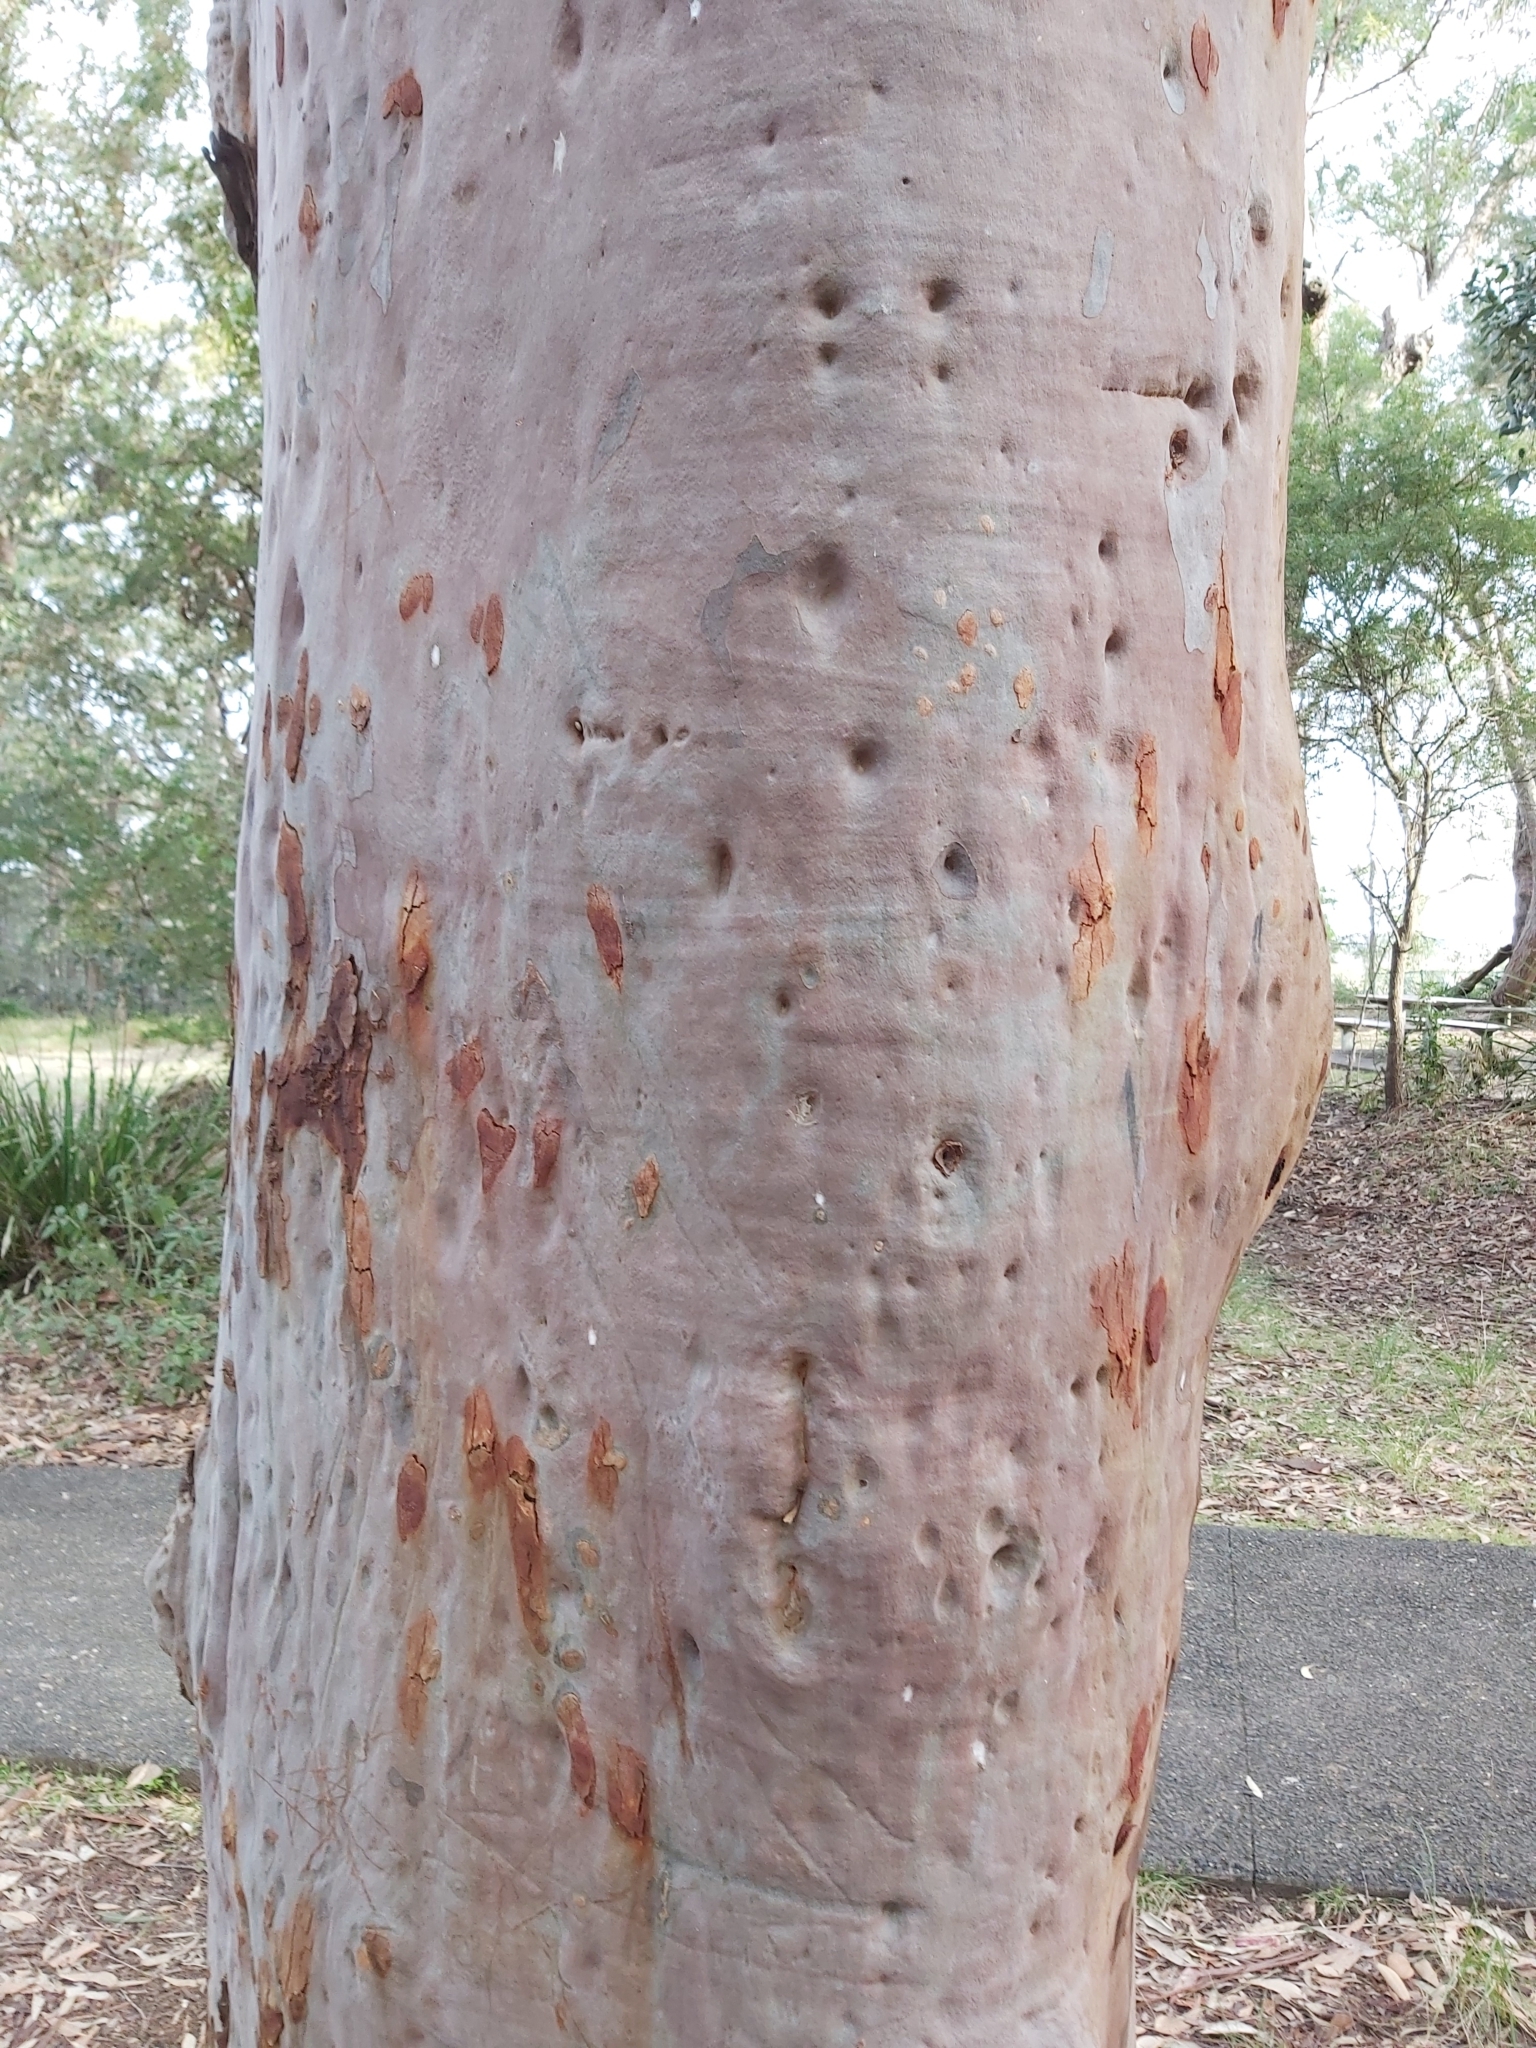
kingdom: Plantae
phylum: Tracheophyta
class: Magnoliopsida
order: Myrtales
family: Myrtaceae
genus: Angophora
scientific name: Angophora costata
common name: Gum myrtle
